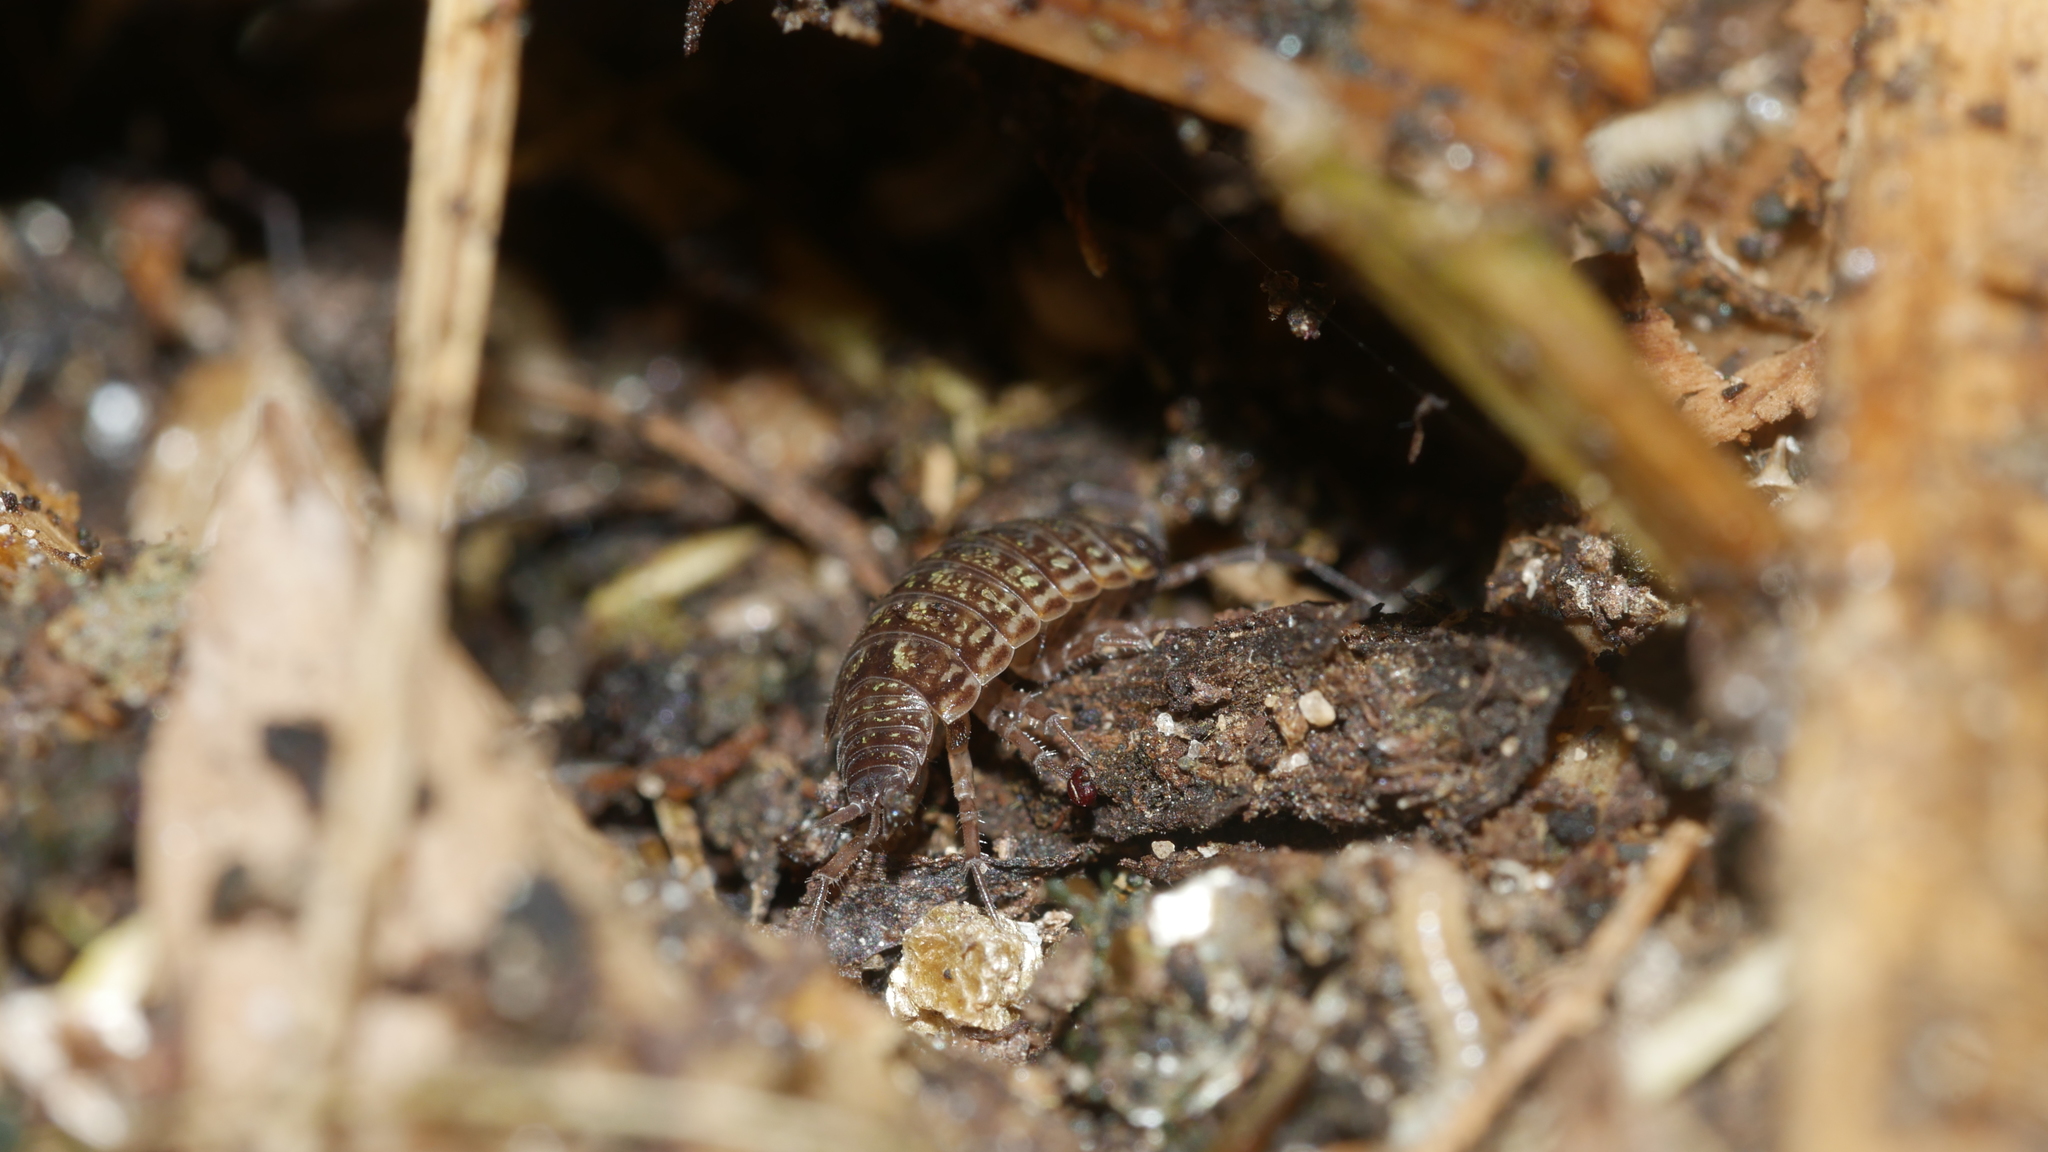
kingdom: Animalia
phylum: Arthropoda
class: Malacostraca
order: Isopoda
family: Philosciidae
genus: Philoscia
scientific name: Philoscia muscorum
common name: Common striped woodlouse
